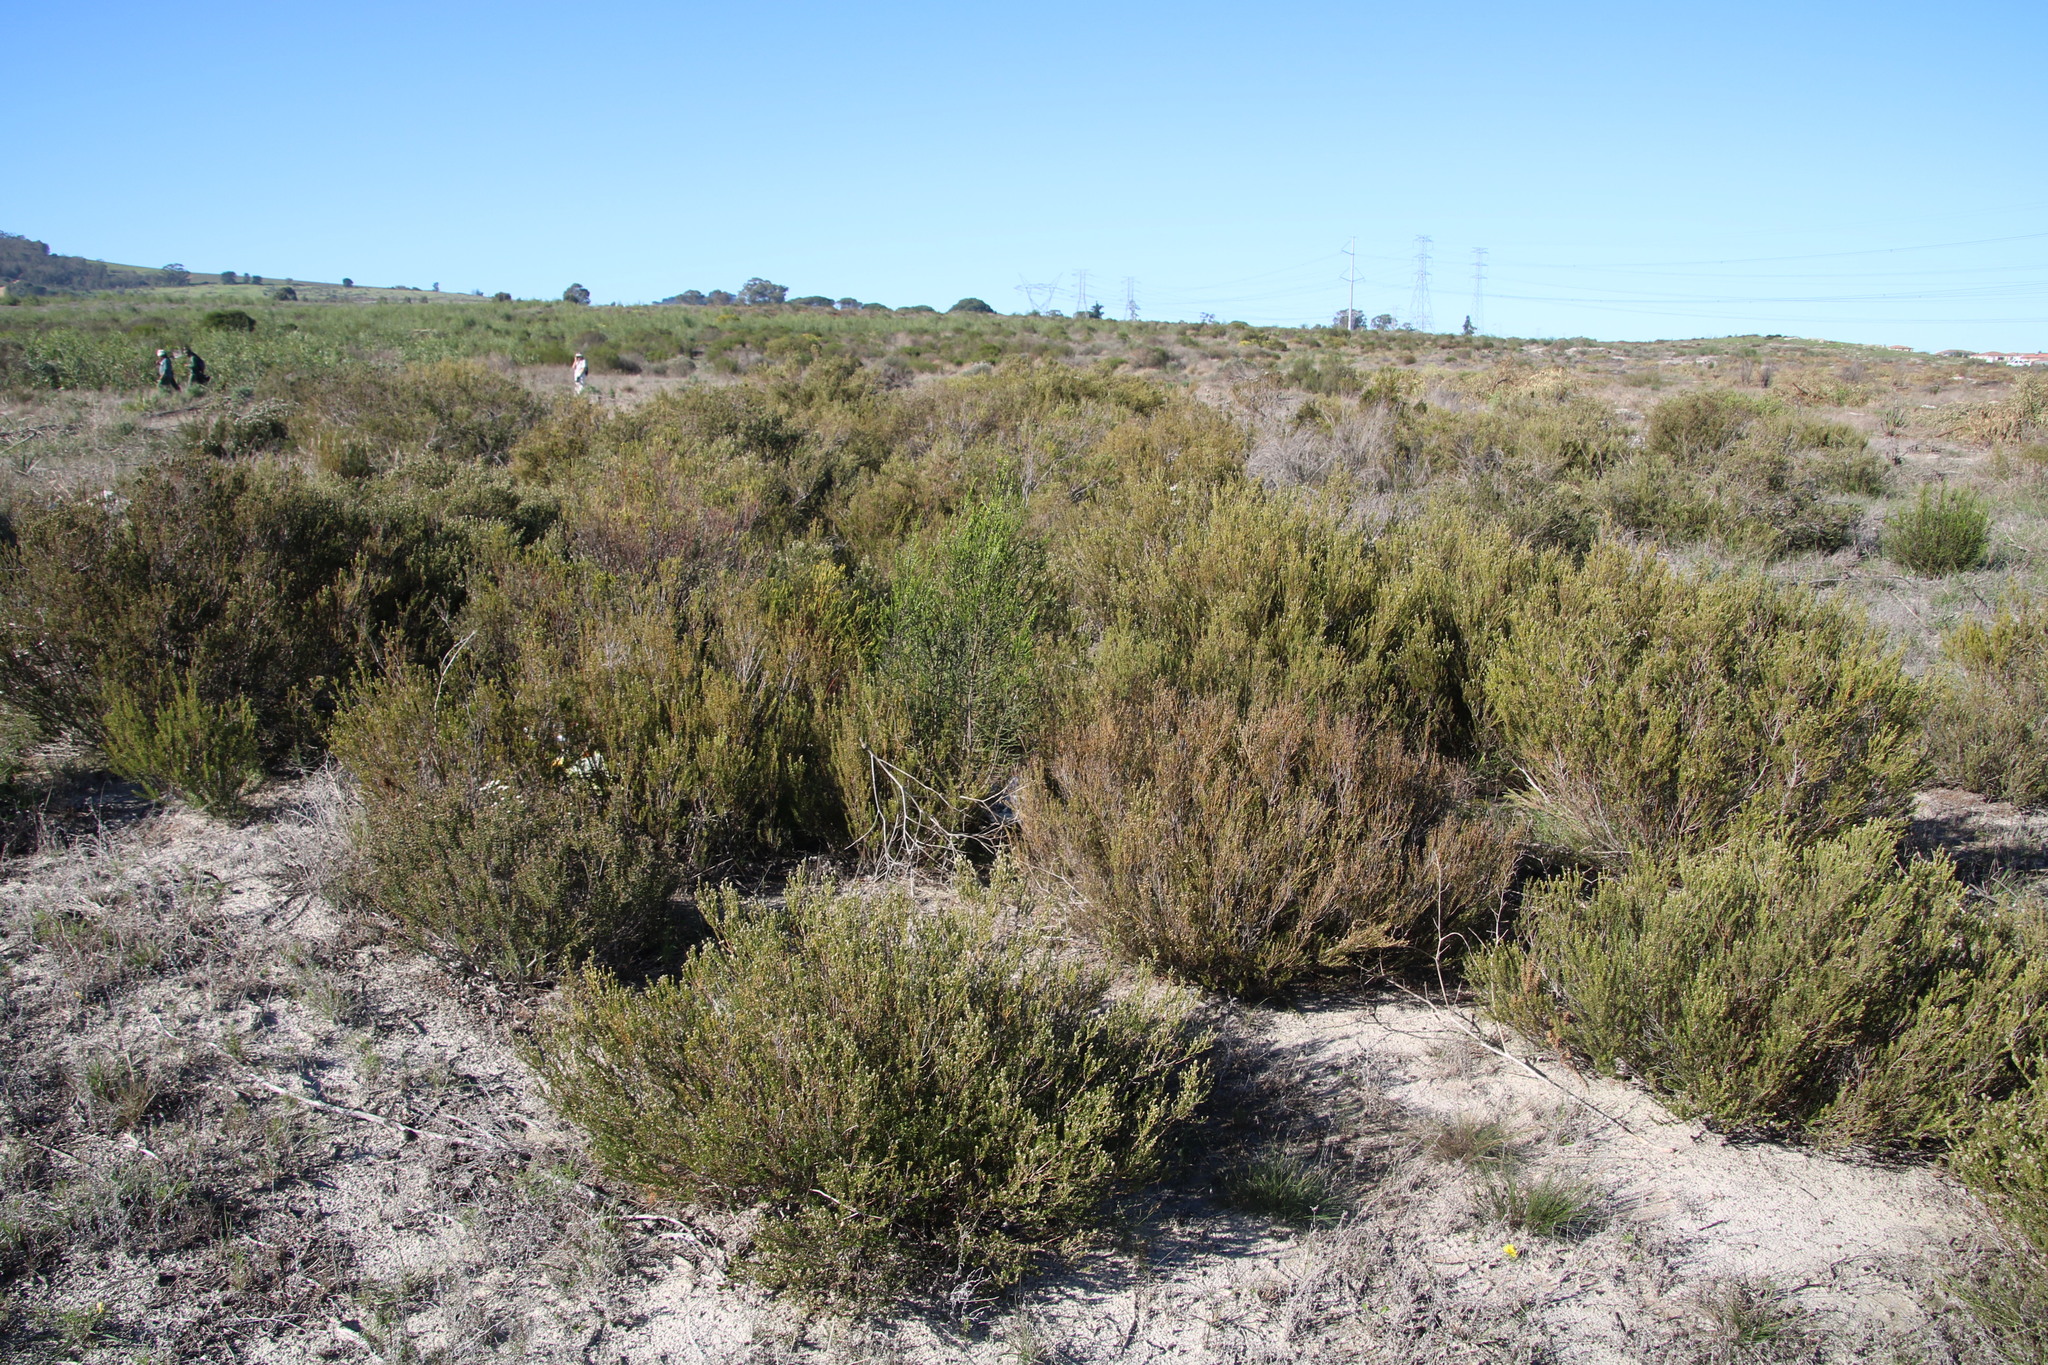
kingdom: Plantae
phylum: Tracheophyta
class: Magnoliopsida
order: Malvales
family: Thymelaeaceae
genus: Passerina
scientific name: Passerina corymbosa
